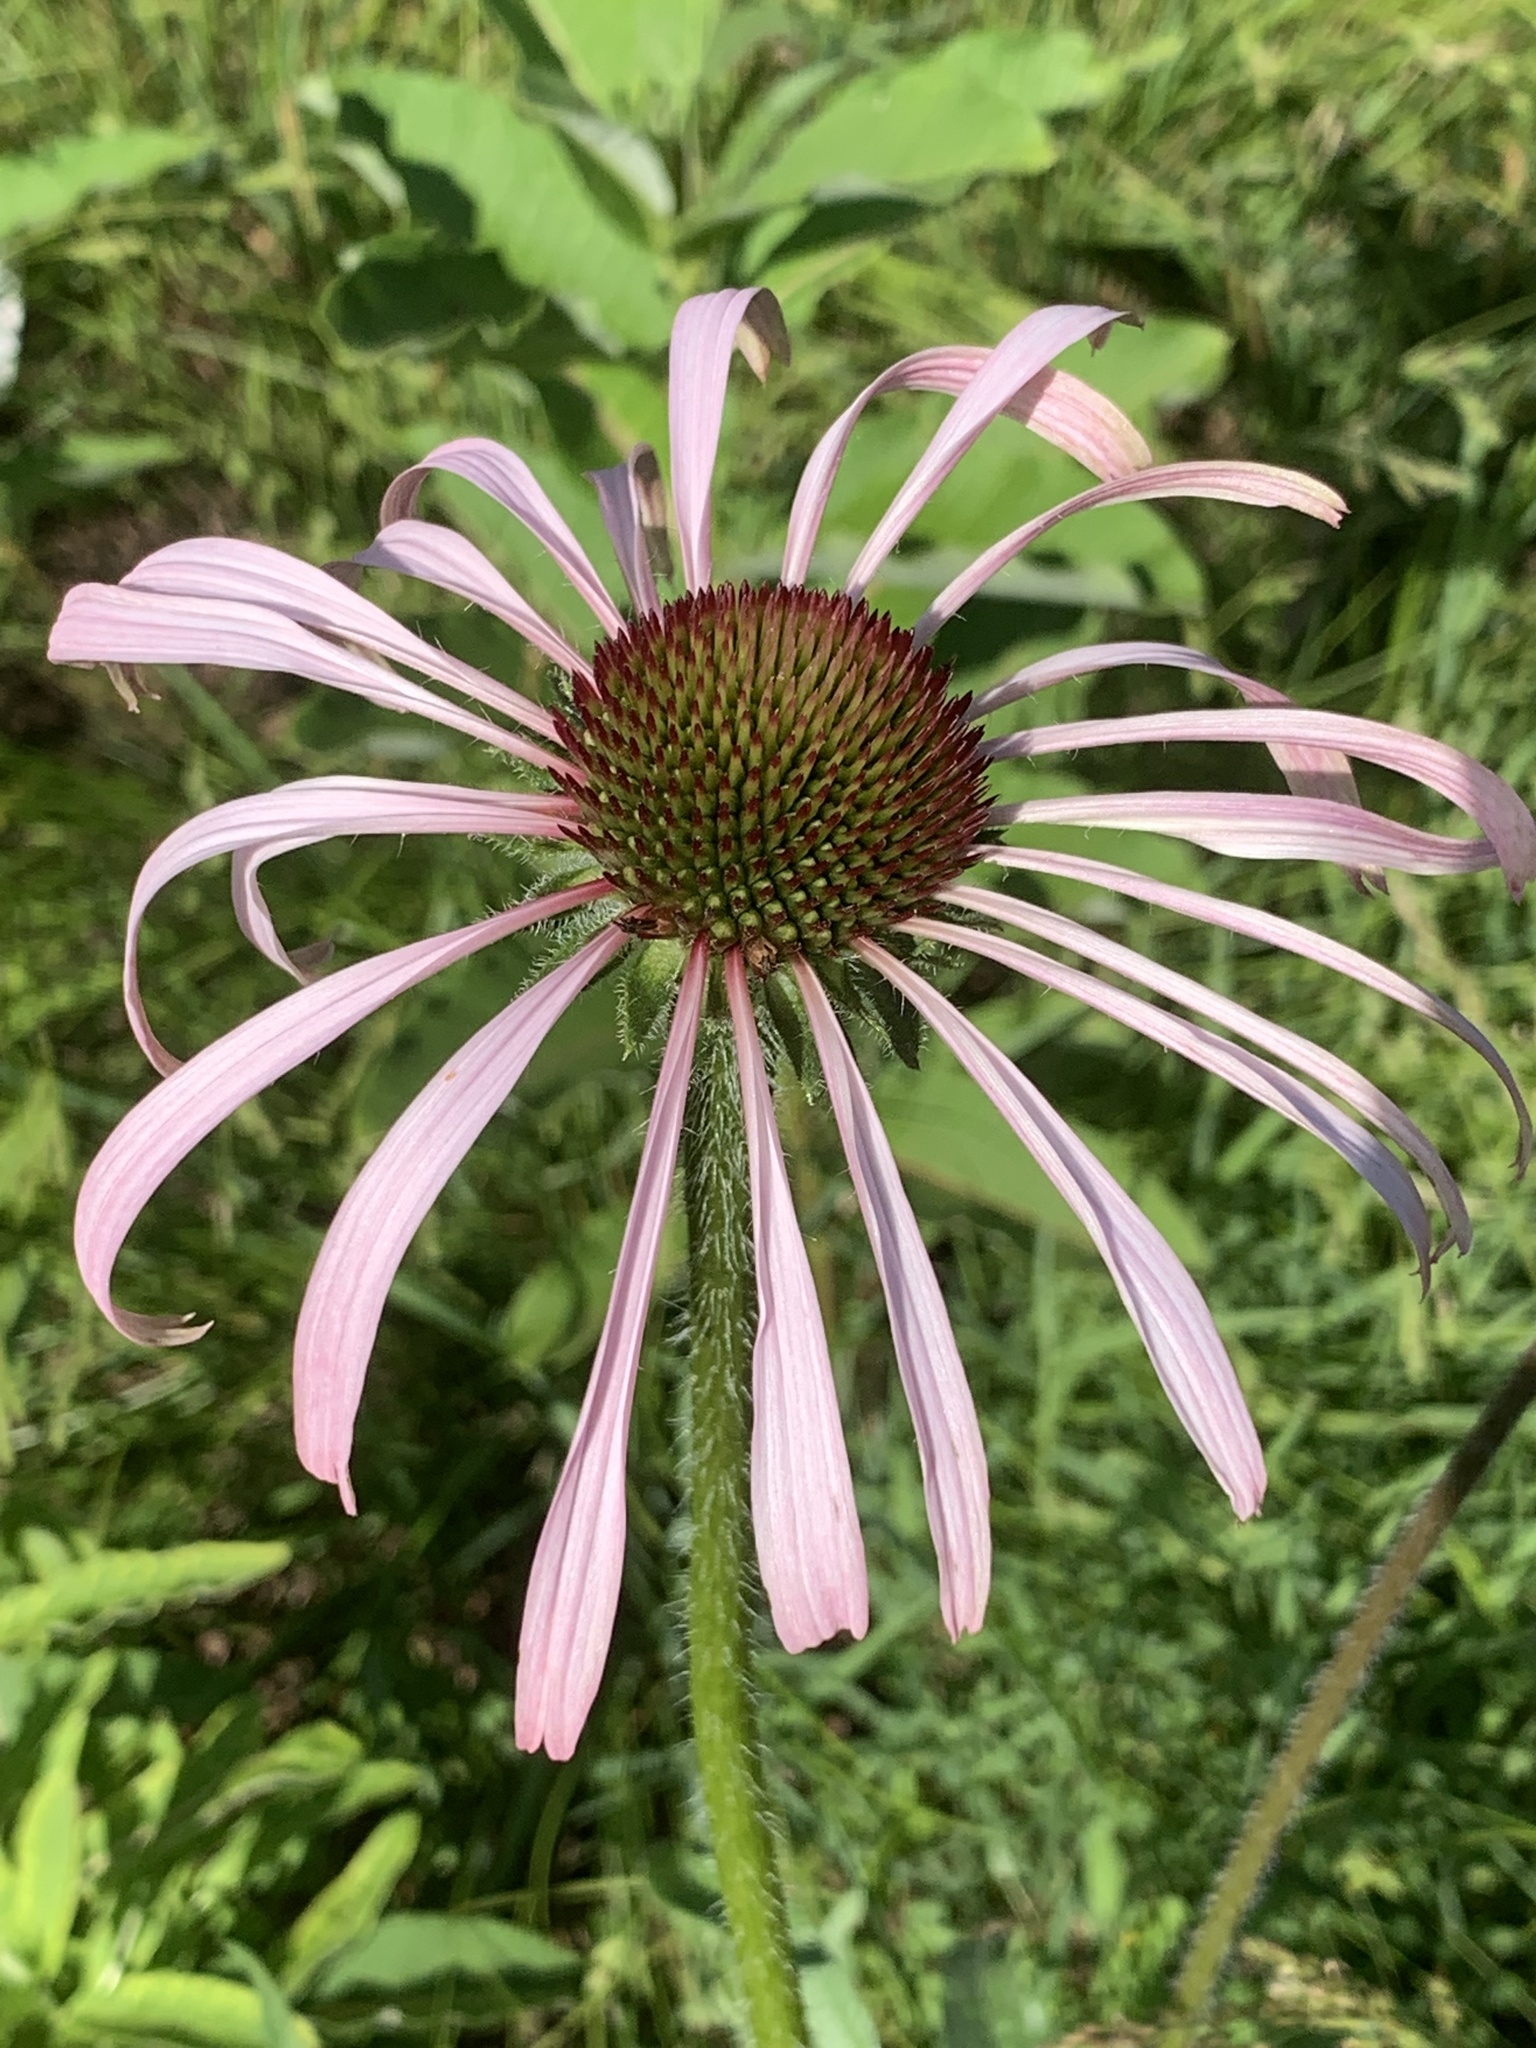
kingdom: Plantae
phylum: Tracheophyta
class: Magnoliopsida
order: Asterales
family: Asteraceae
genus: Echinacea
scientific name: Echinacea pallida
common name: Pale echinacea
